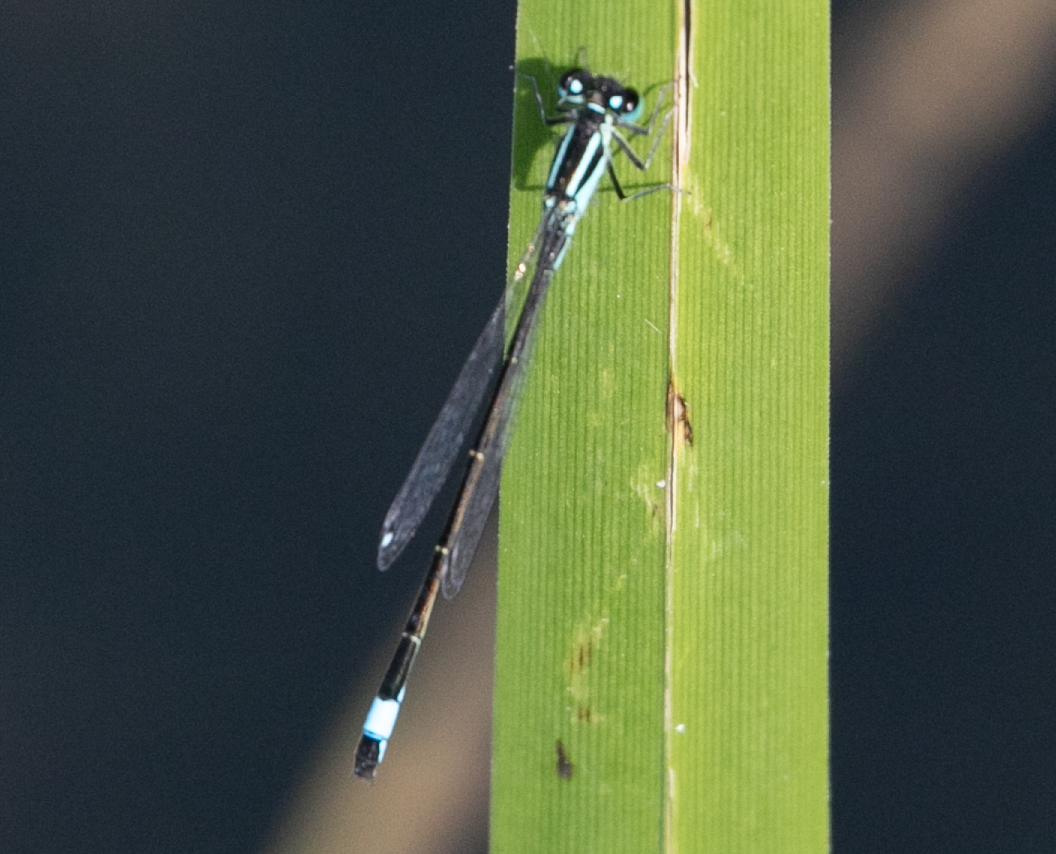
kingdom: Animalia
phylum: Arthropoda
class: Insecta
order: Odonata
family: Coenagrionidae
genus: Ischnura
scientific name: Ischnura elegans
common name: Blue-tailed damselfly
